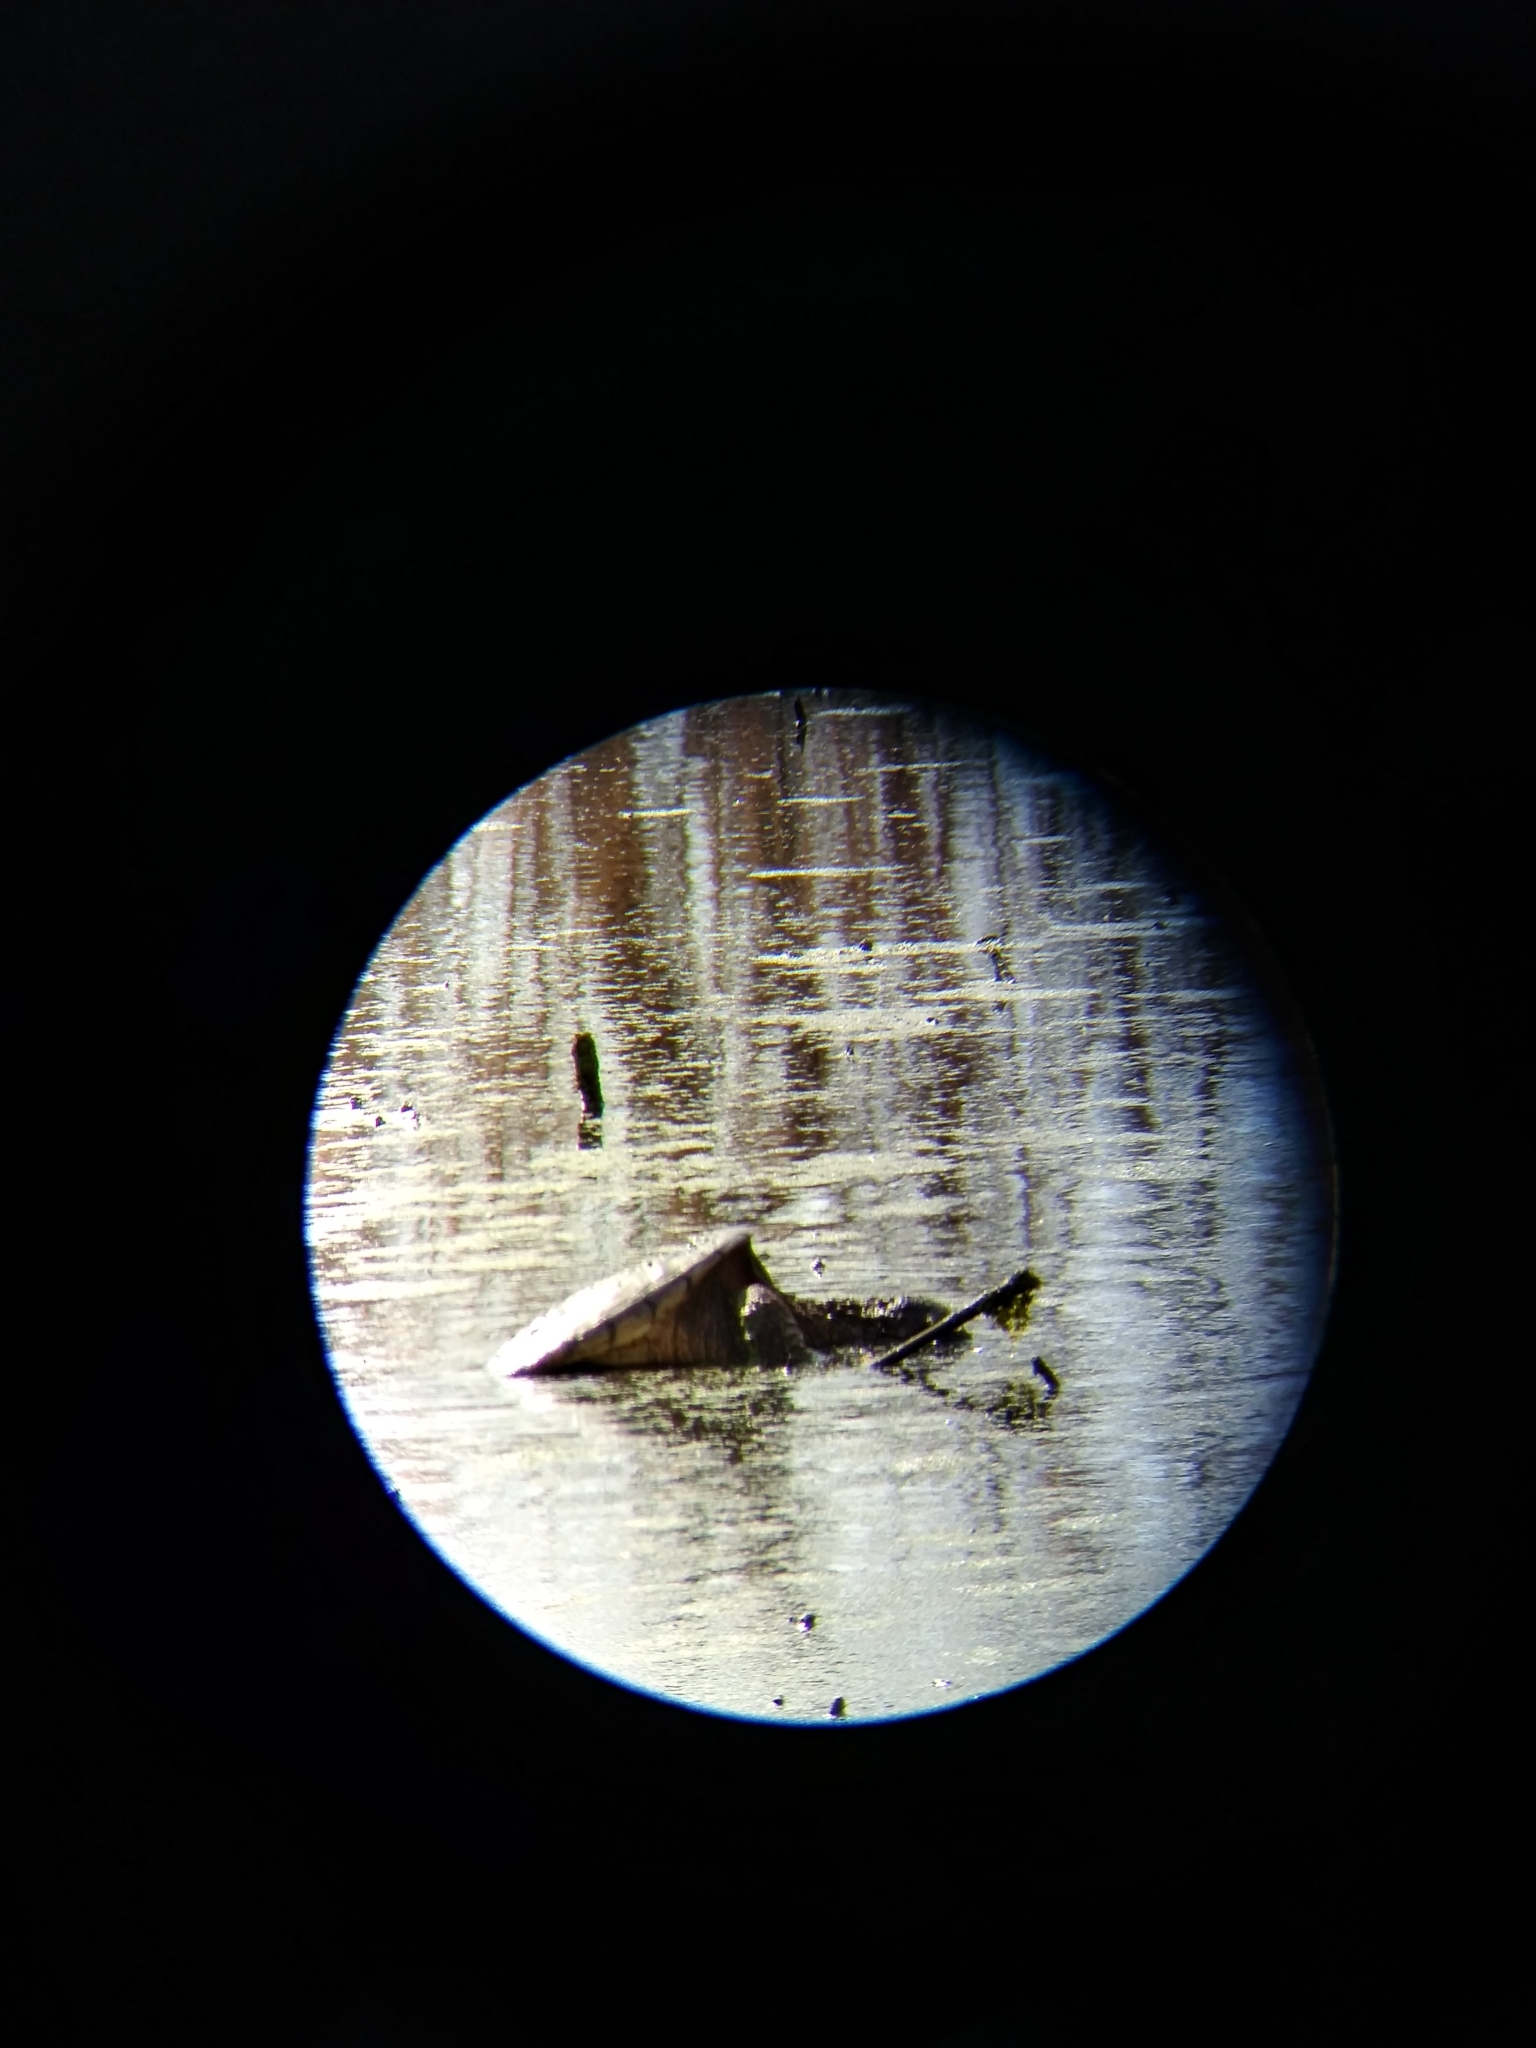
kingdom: Animalia
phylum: Chordata
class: Testudines
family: Chelydridae
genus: Chelydra
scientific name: Chelydra serpentina
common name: Common snapping turtle
